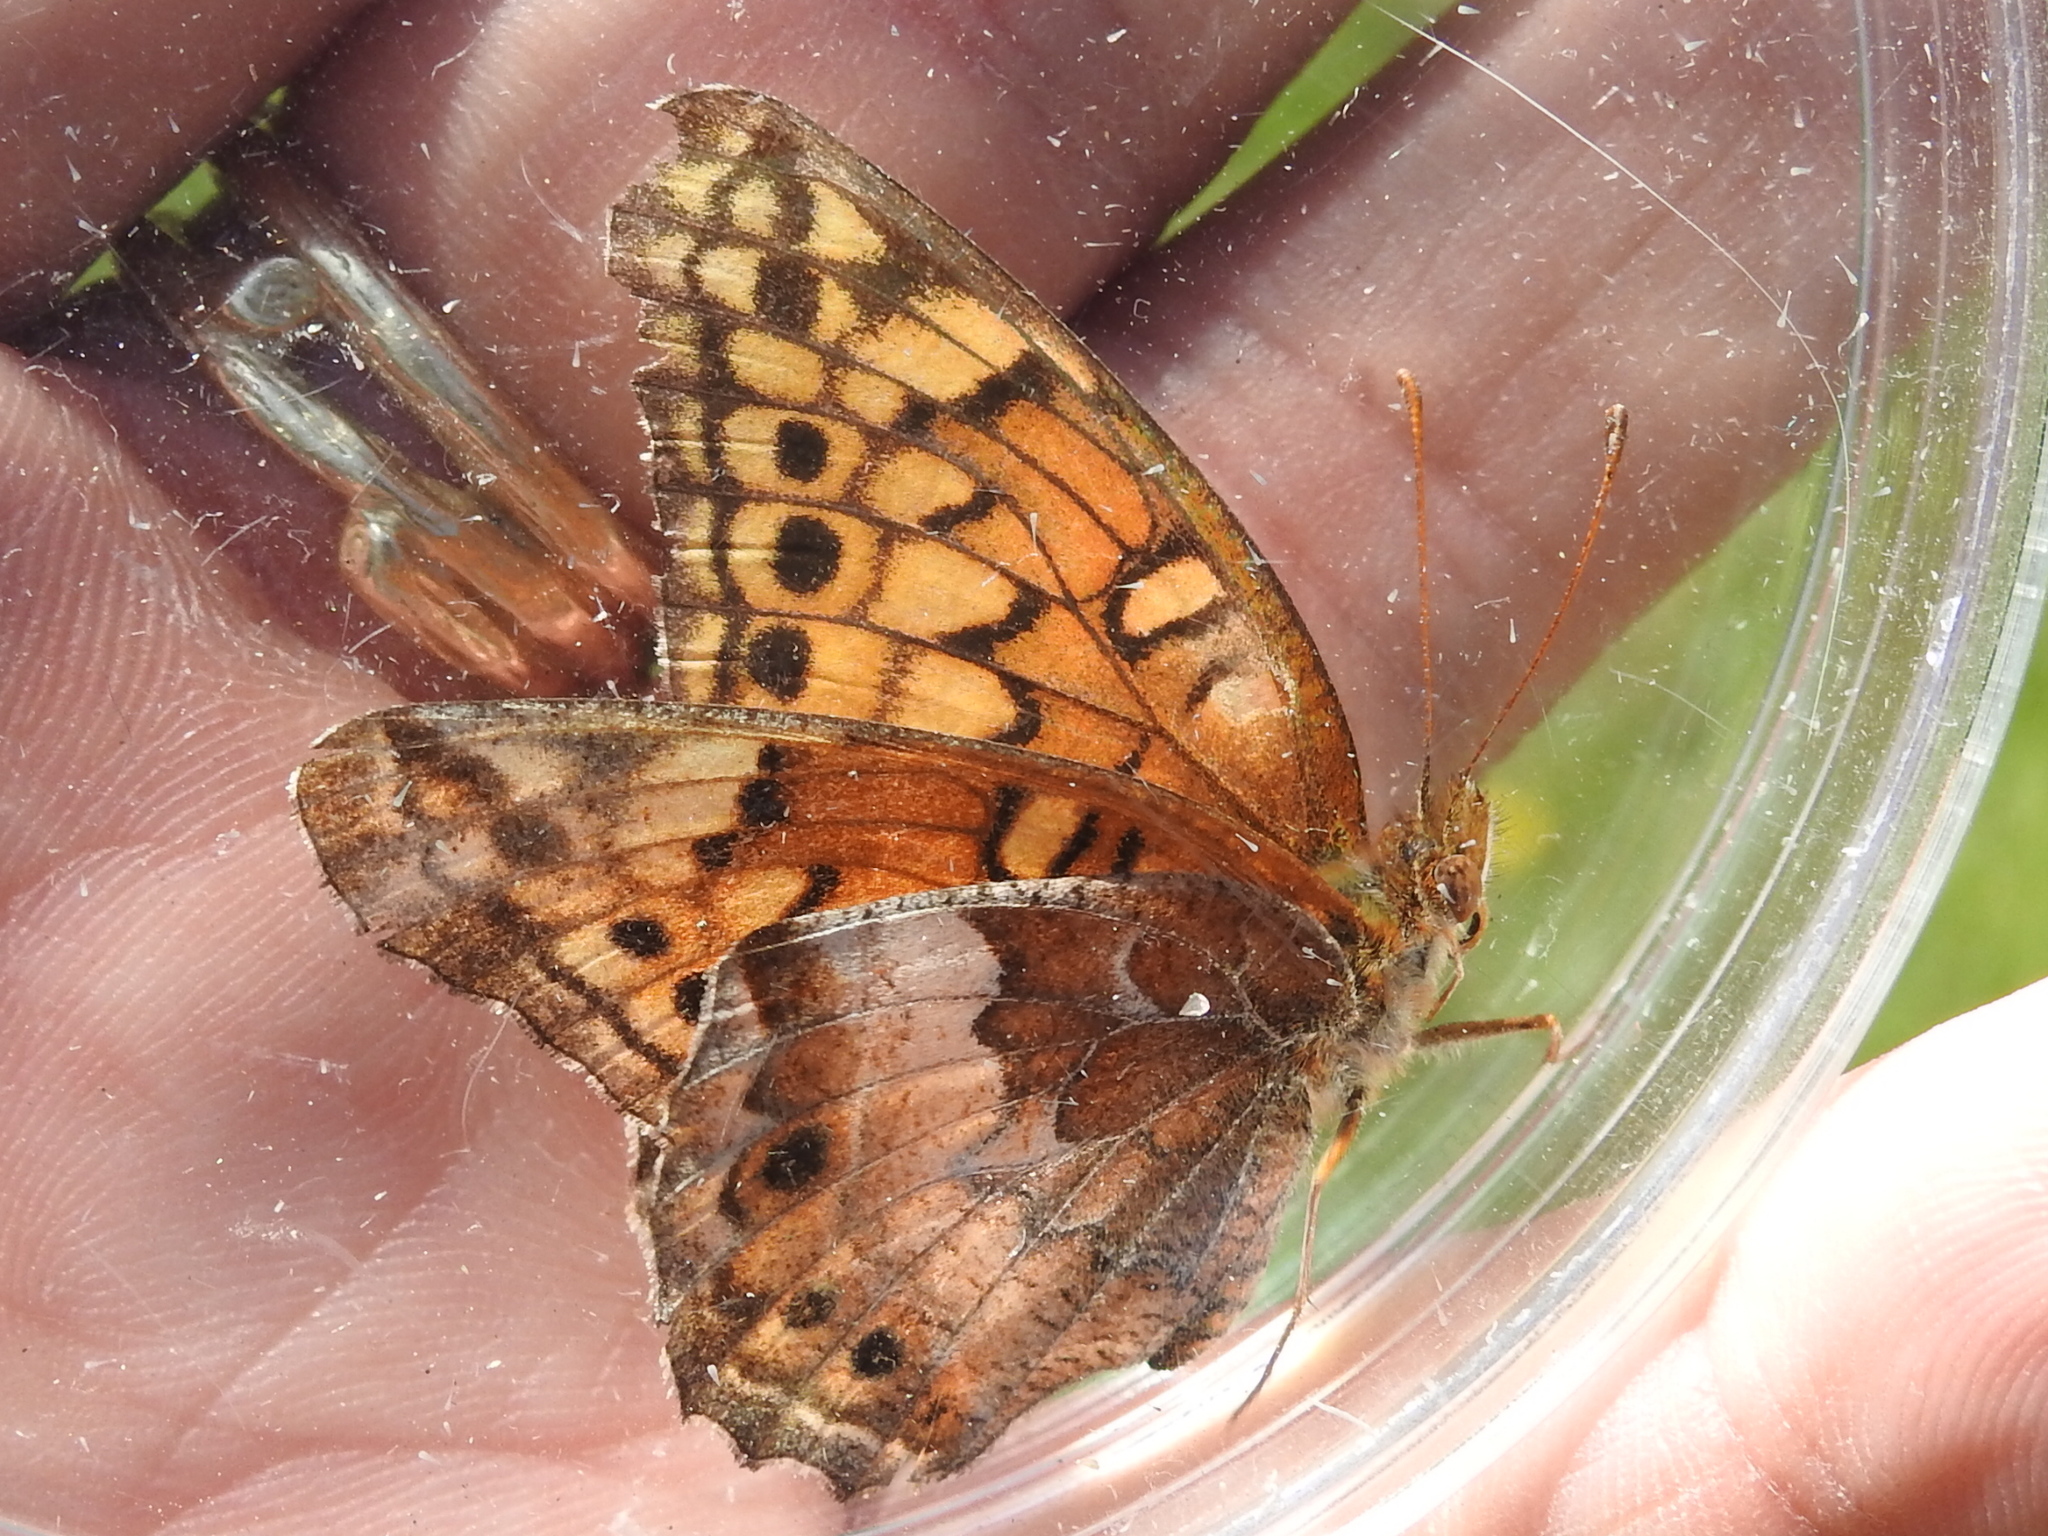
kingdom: Animalia
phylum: Arthropoda
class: Insecta
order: Lepidoptera
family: Nymphalidae
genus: Euptoieta
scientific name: Euptoieta claudia
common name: Variegated fritillary
